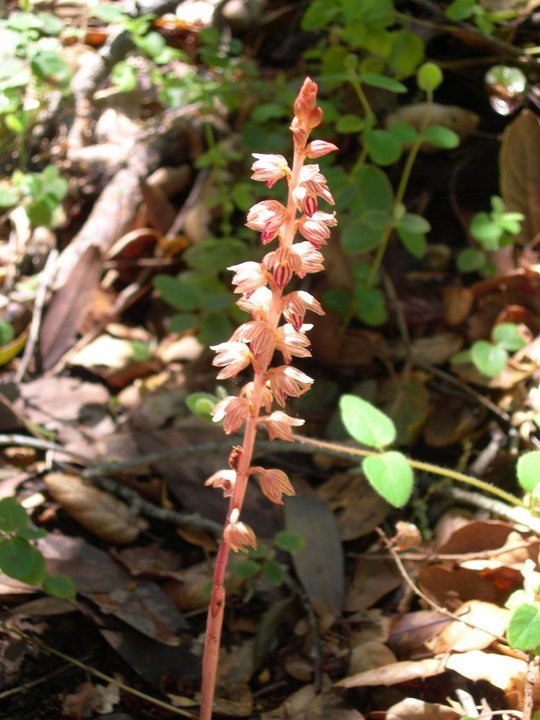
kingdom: Plantae
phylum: Tracheophyta
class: Liliopsida
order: Asparagales
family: Orchidaceae
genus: Corallorhiza
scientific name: Corallorhiza striata
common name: Hooded coralroot
